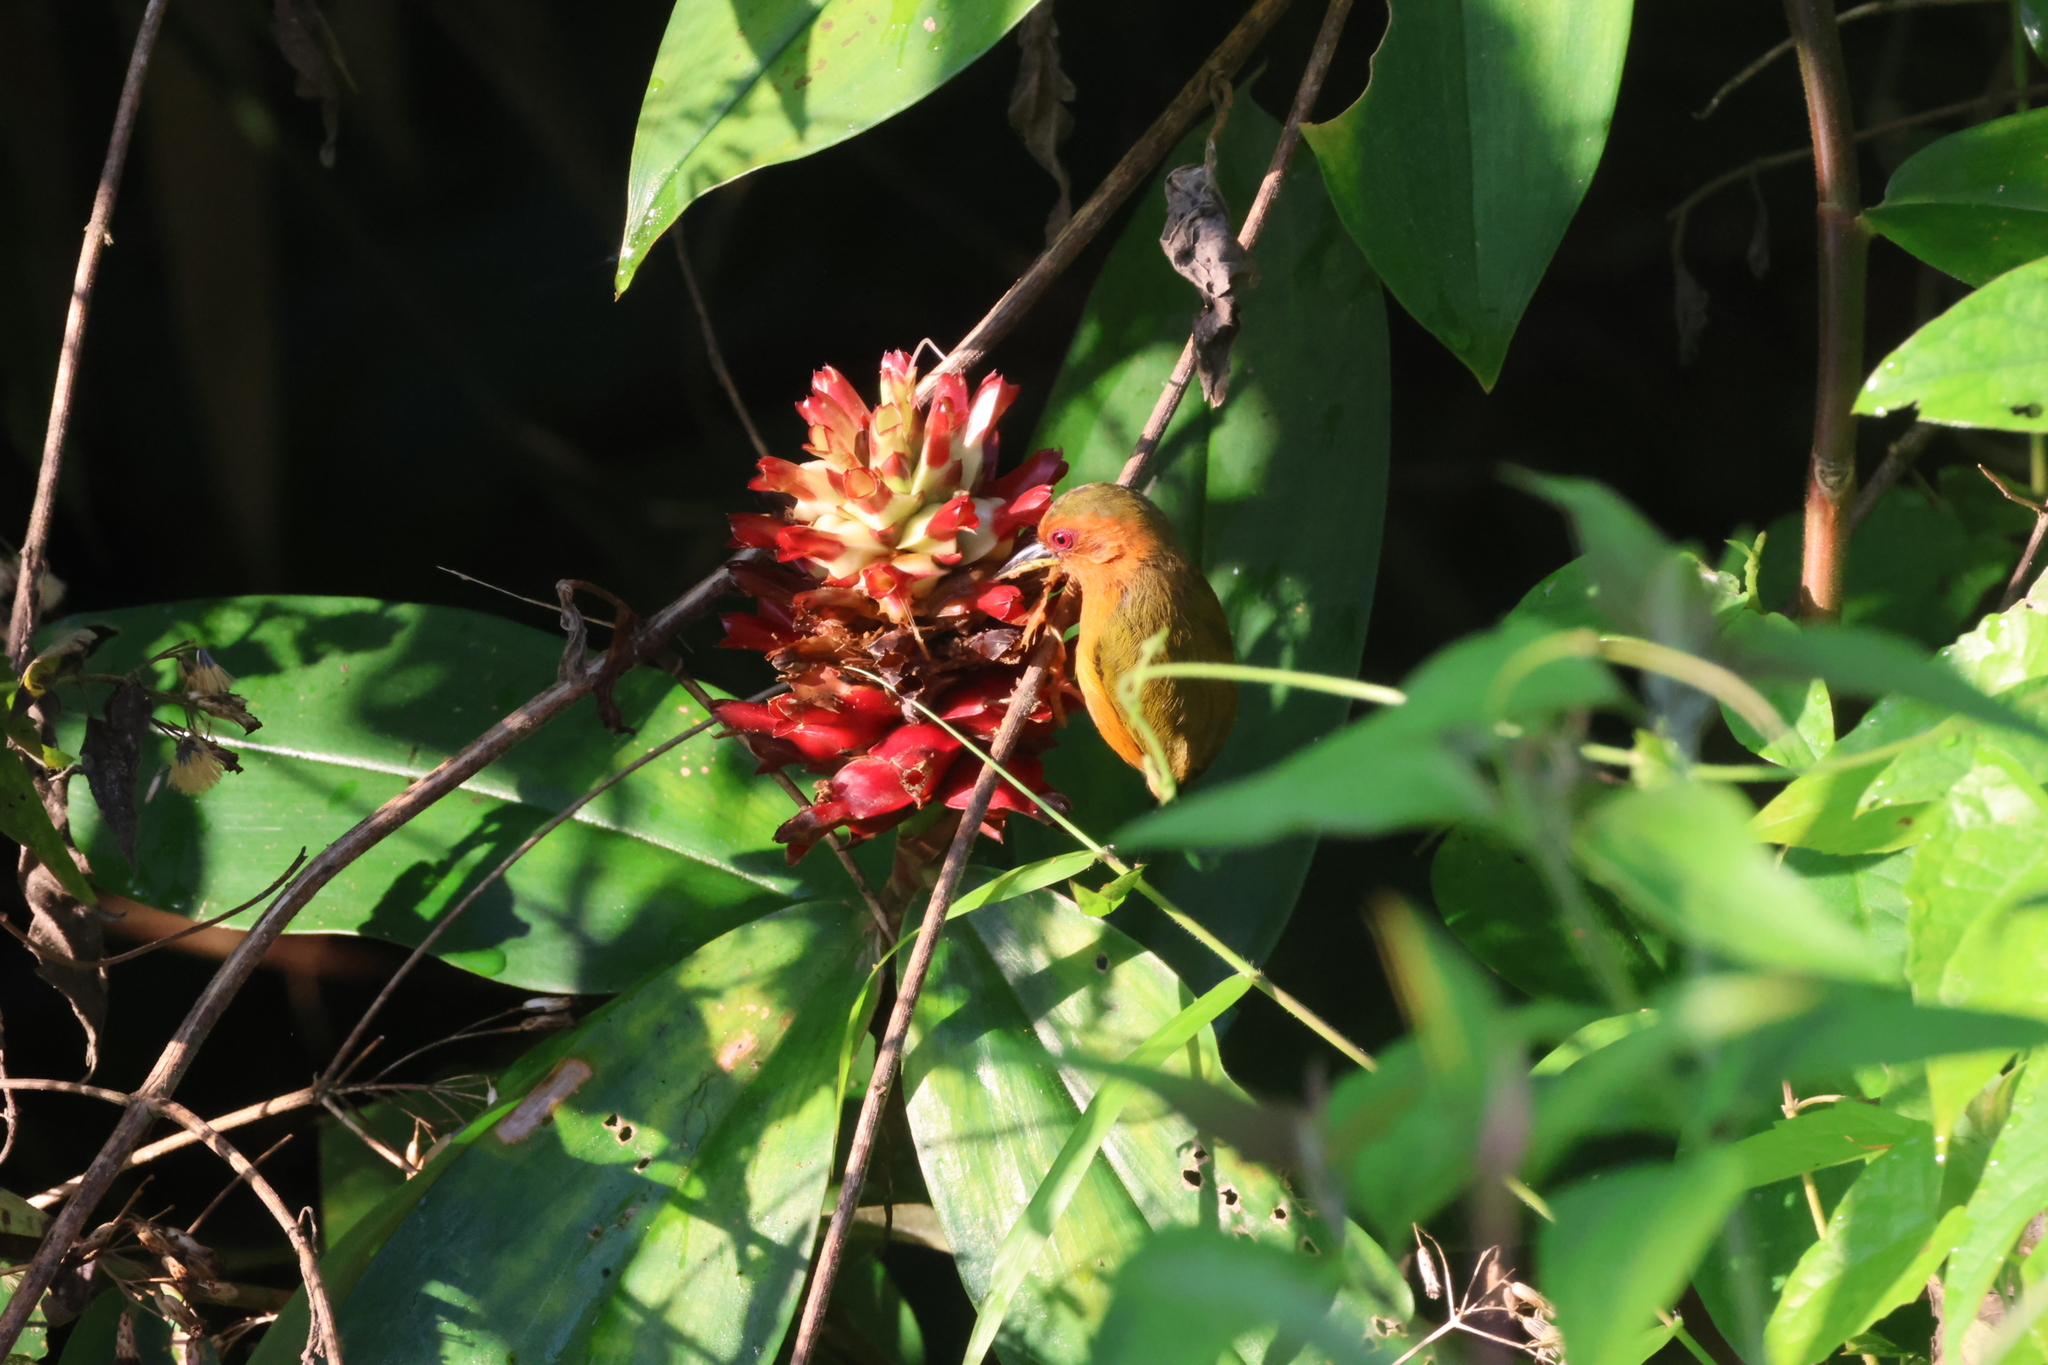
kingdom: Animalia
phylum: Chordata
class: Aves
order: Piciformes
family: Picidae
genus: Sasia
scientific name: Sasia abnormis
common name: Rufous piculet
